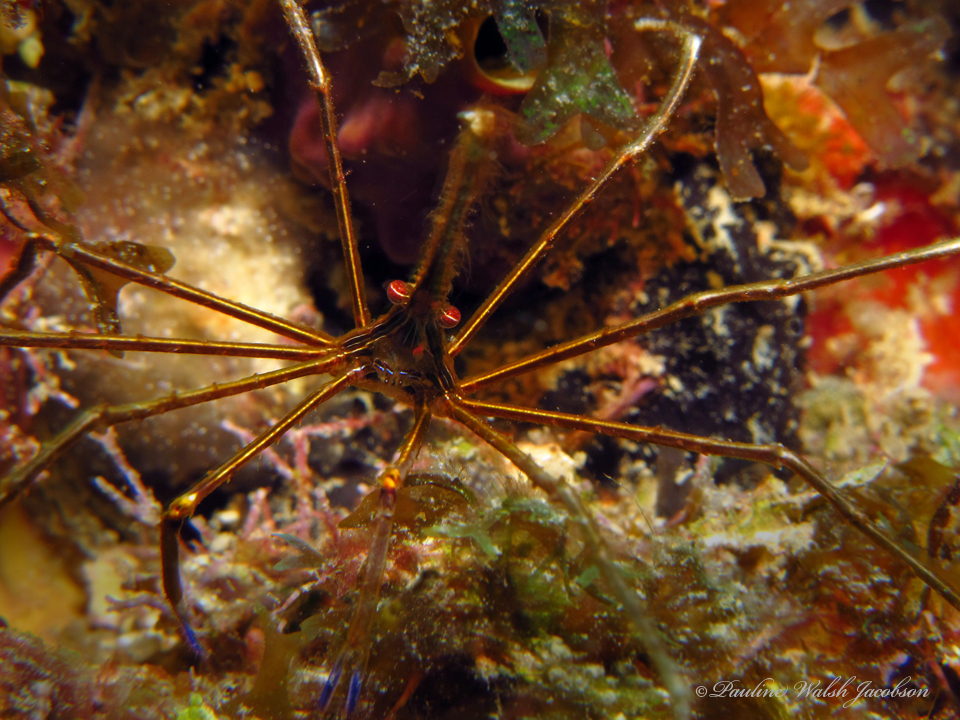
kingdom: Animalia
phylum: Arthropoda
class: Malacostraca
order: Decapoda
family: Inachoididae
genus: Stenorhynchus
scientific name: Stenorhynchus seticornis
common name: Arrow crab
